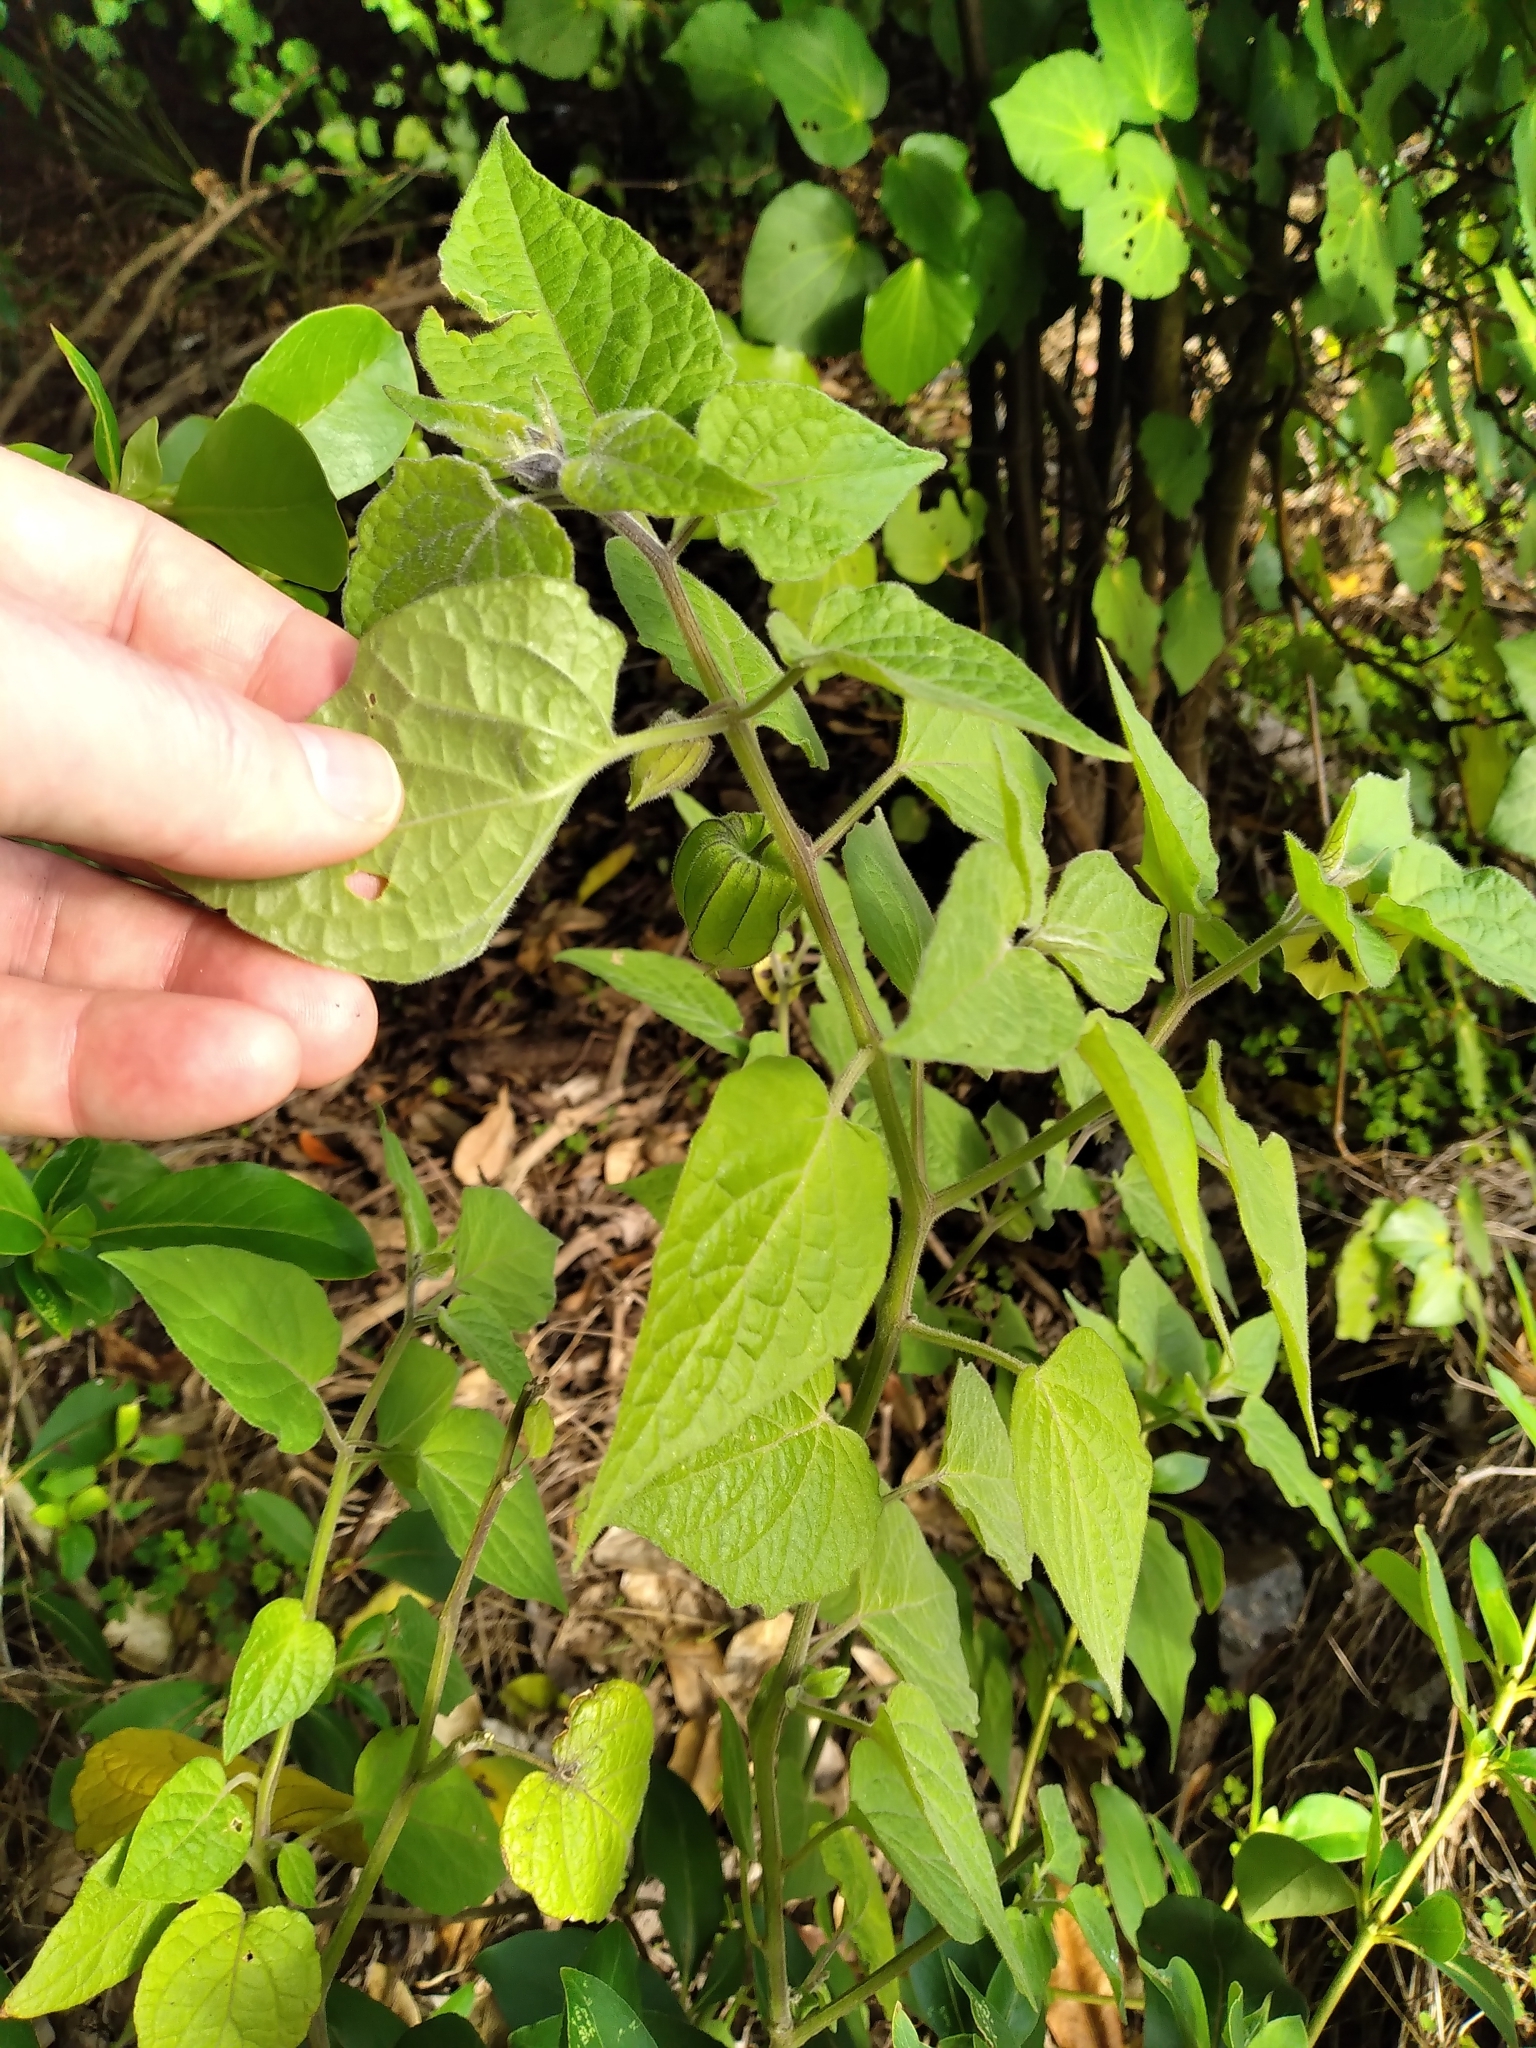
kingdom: Plantae
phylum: Tracheophyta
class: Magnoliopsida
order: Solanales
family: Solanaceae
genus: Physalis
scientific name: Physalis peruviana
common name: Cape-gooseberry
